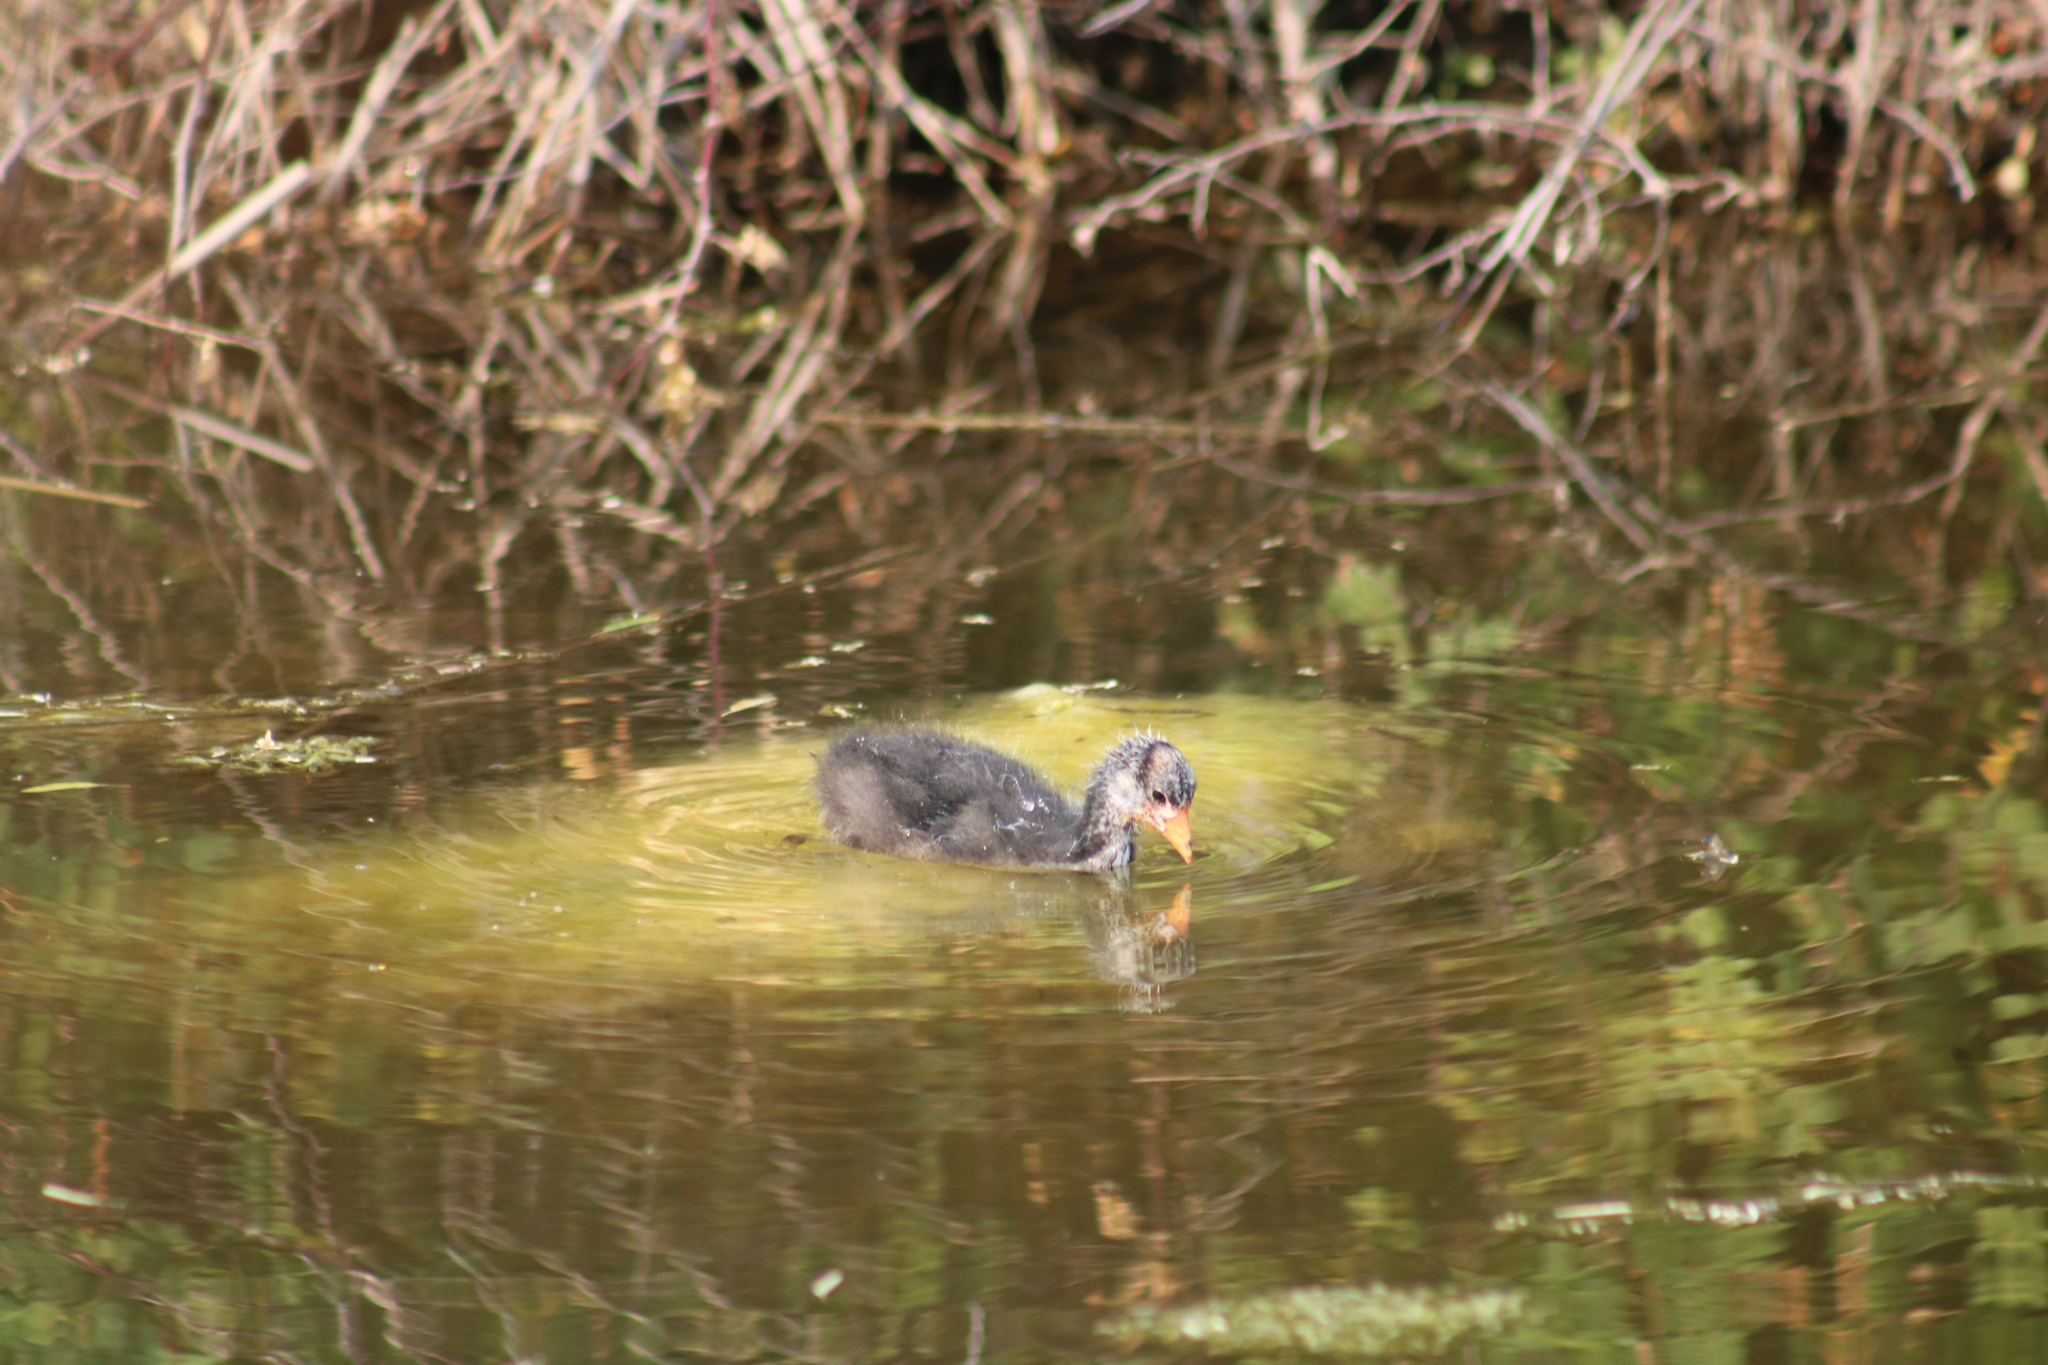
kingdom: Animalia
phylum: Chordata
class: Aves
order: Gruiformes
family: Rallidae
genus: Fulica
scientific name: Fulica americana
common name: American coot
